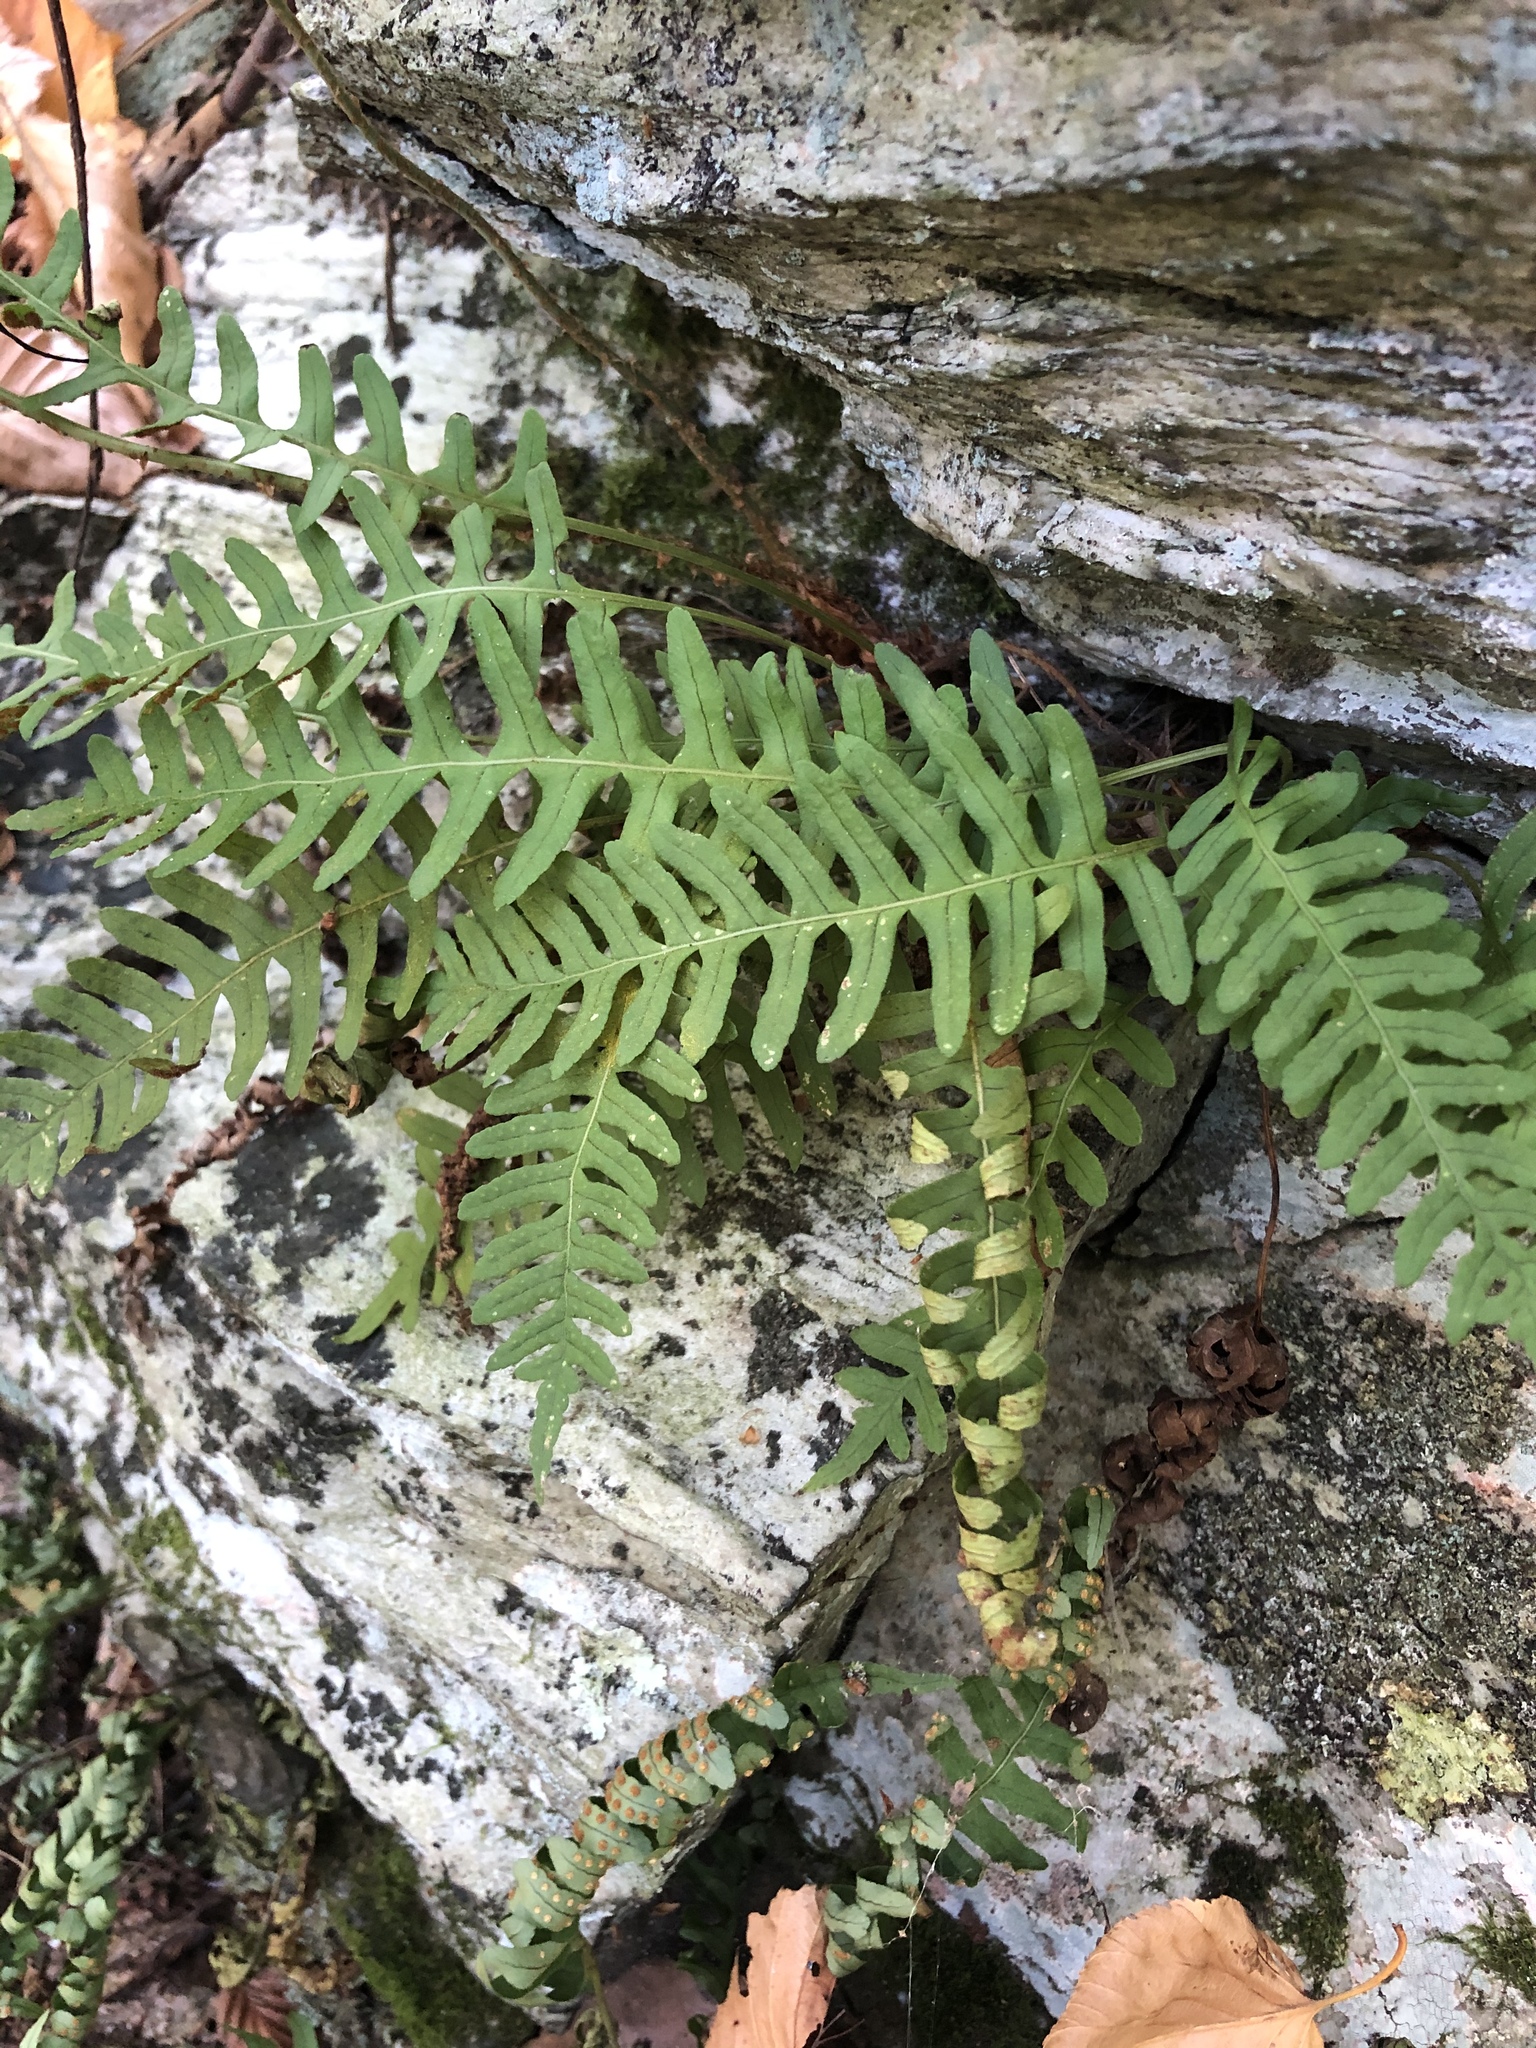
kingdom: Plantae
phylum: Tracheophyta
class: Polypodiopsida
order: Polypodiales
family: Polypodiaceae
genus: Polypodium
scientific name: Polypodium virginianum
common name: American wall fern
